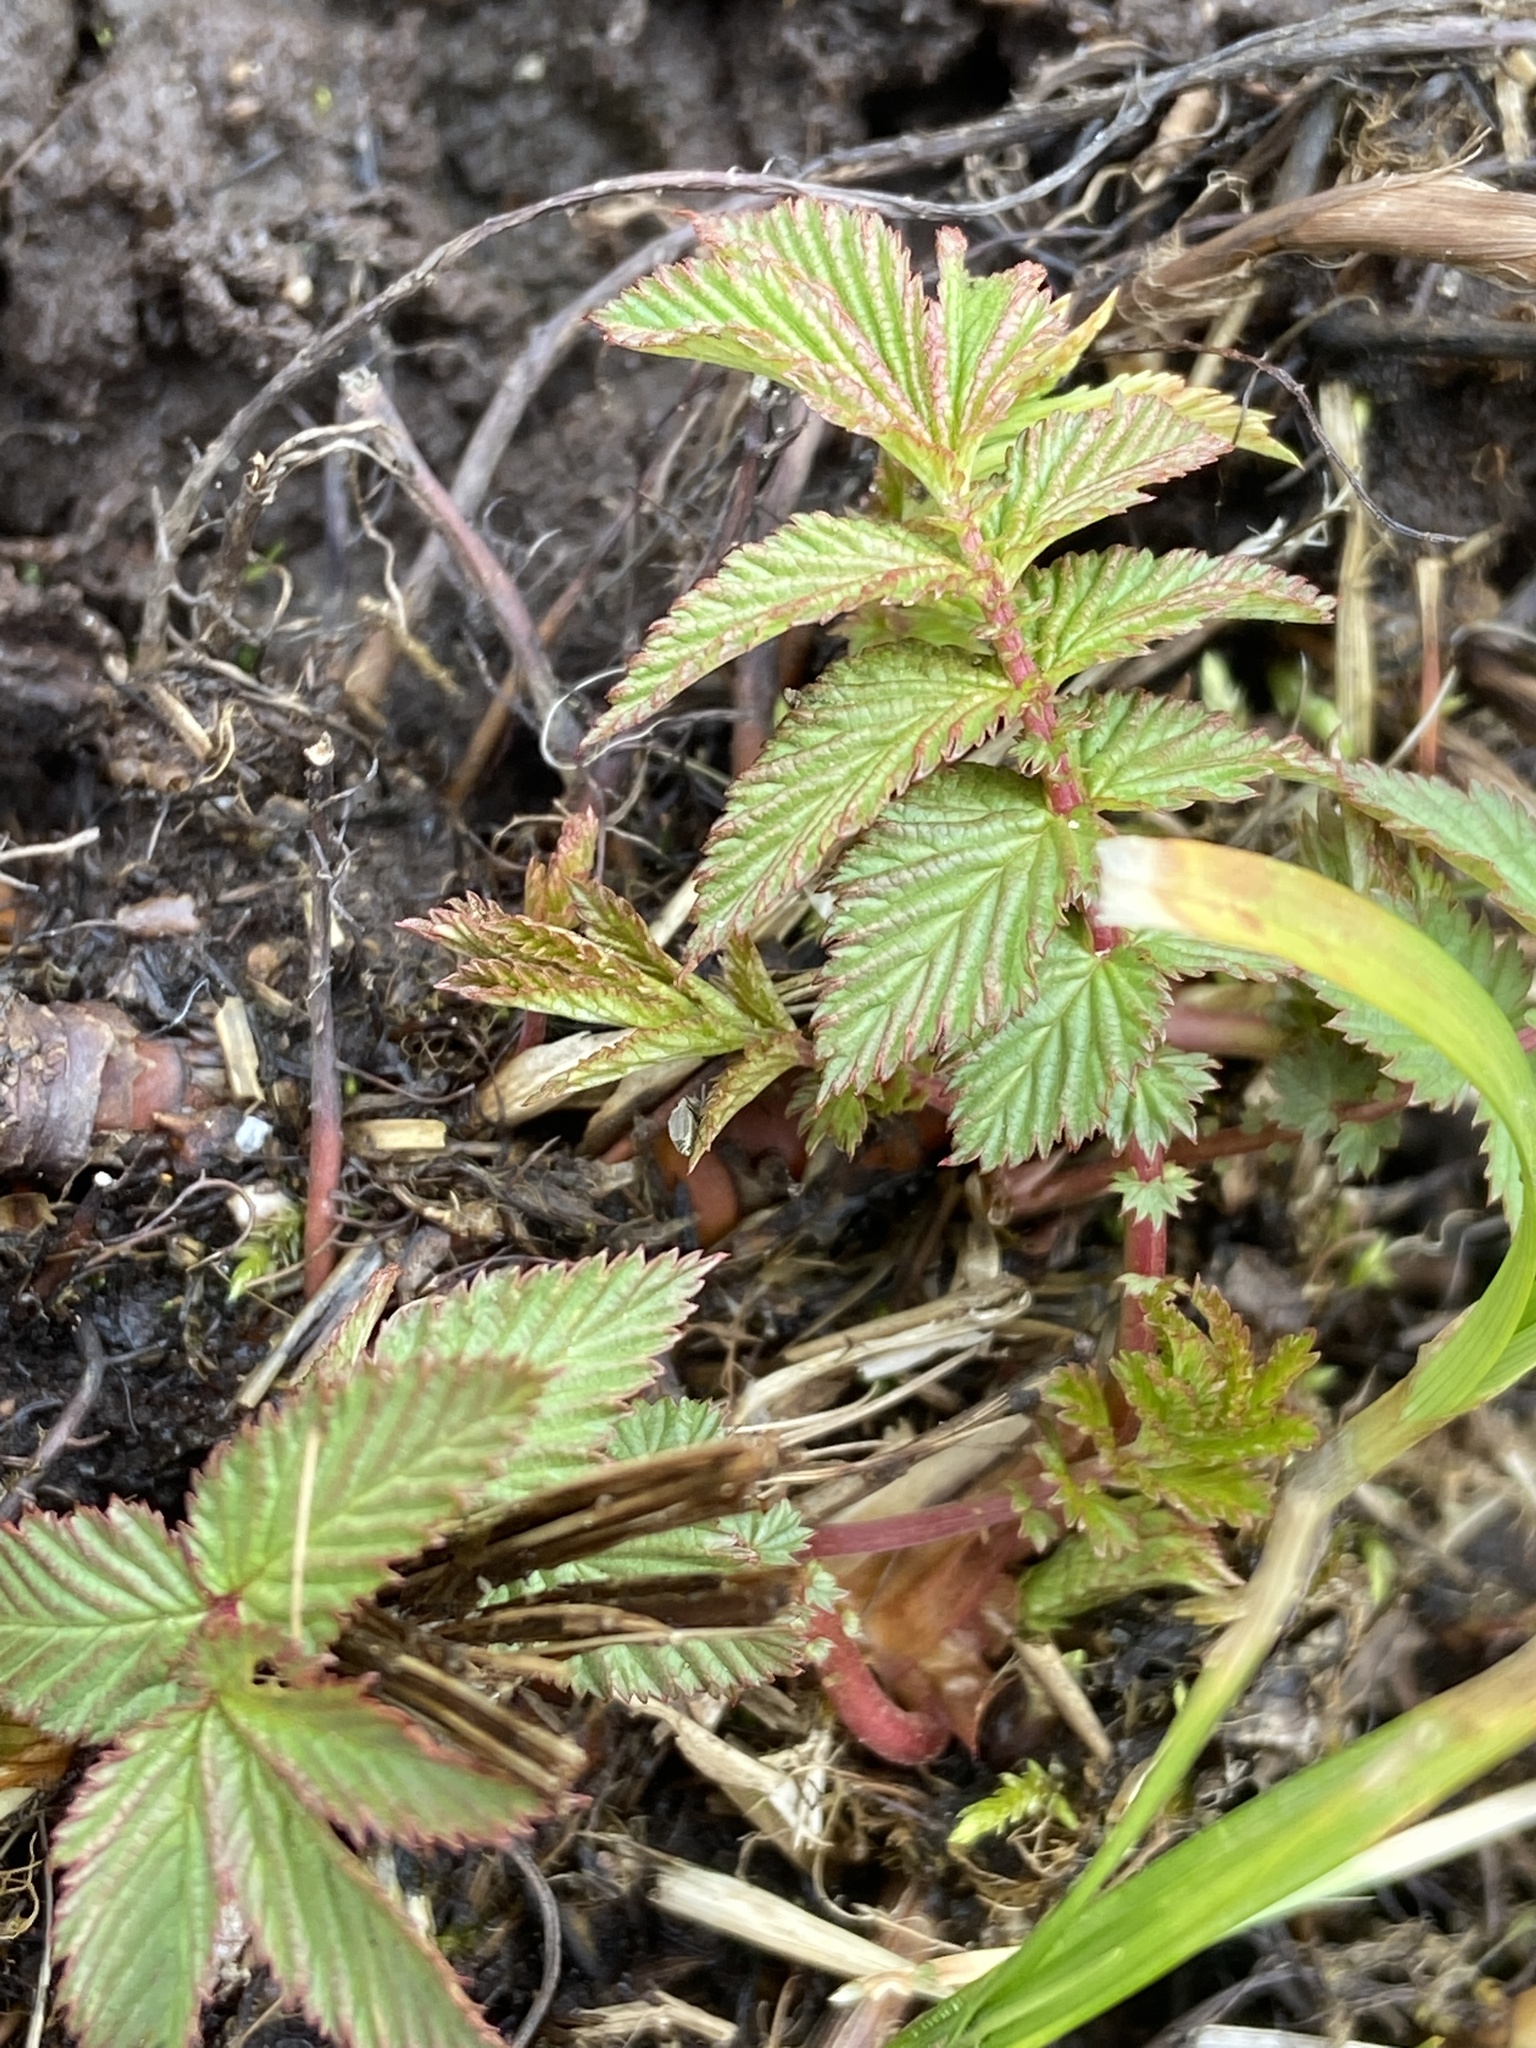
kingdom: Plantae
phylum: Tracheophyta
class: Magnoliopsida
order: Rosales
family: Rosaceae
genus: Filipendula
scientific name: Filipendula ulmaria
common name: Meadowsweet
